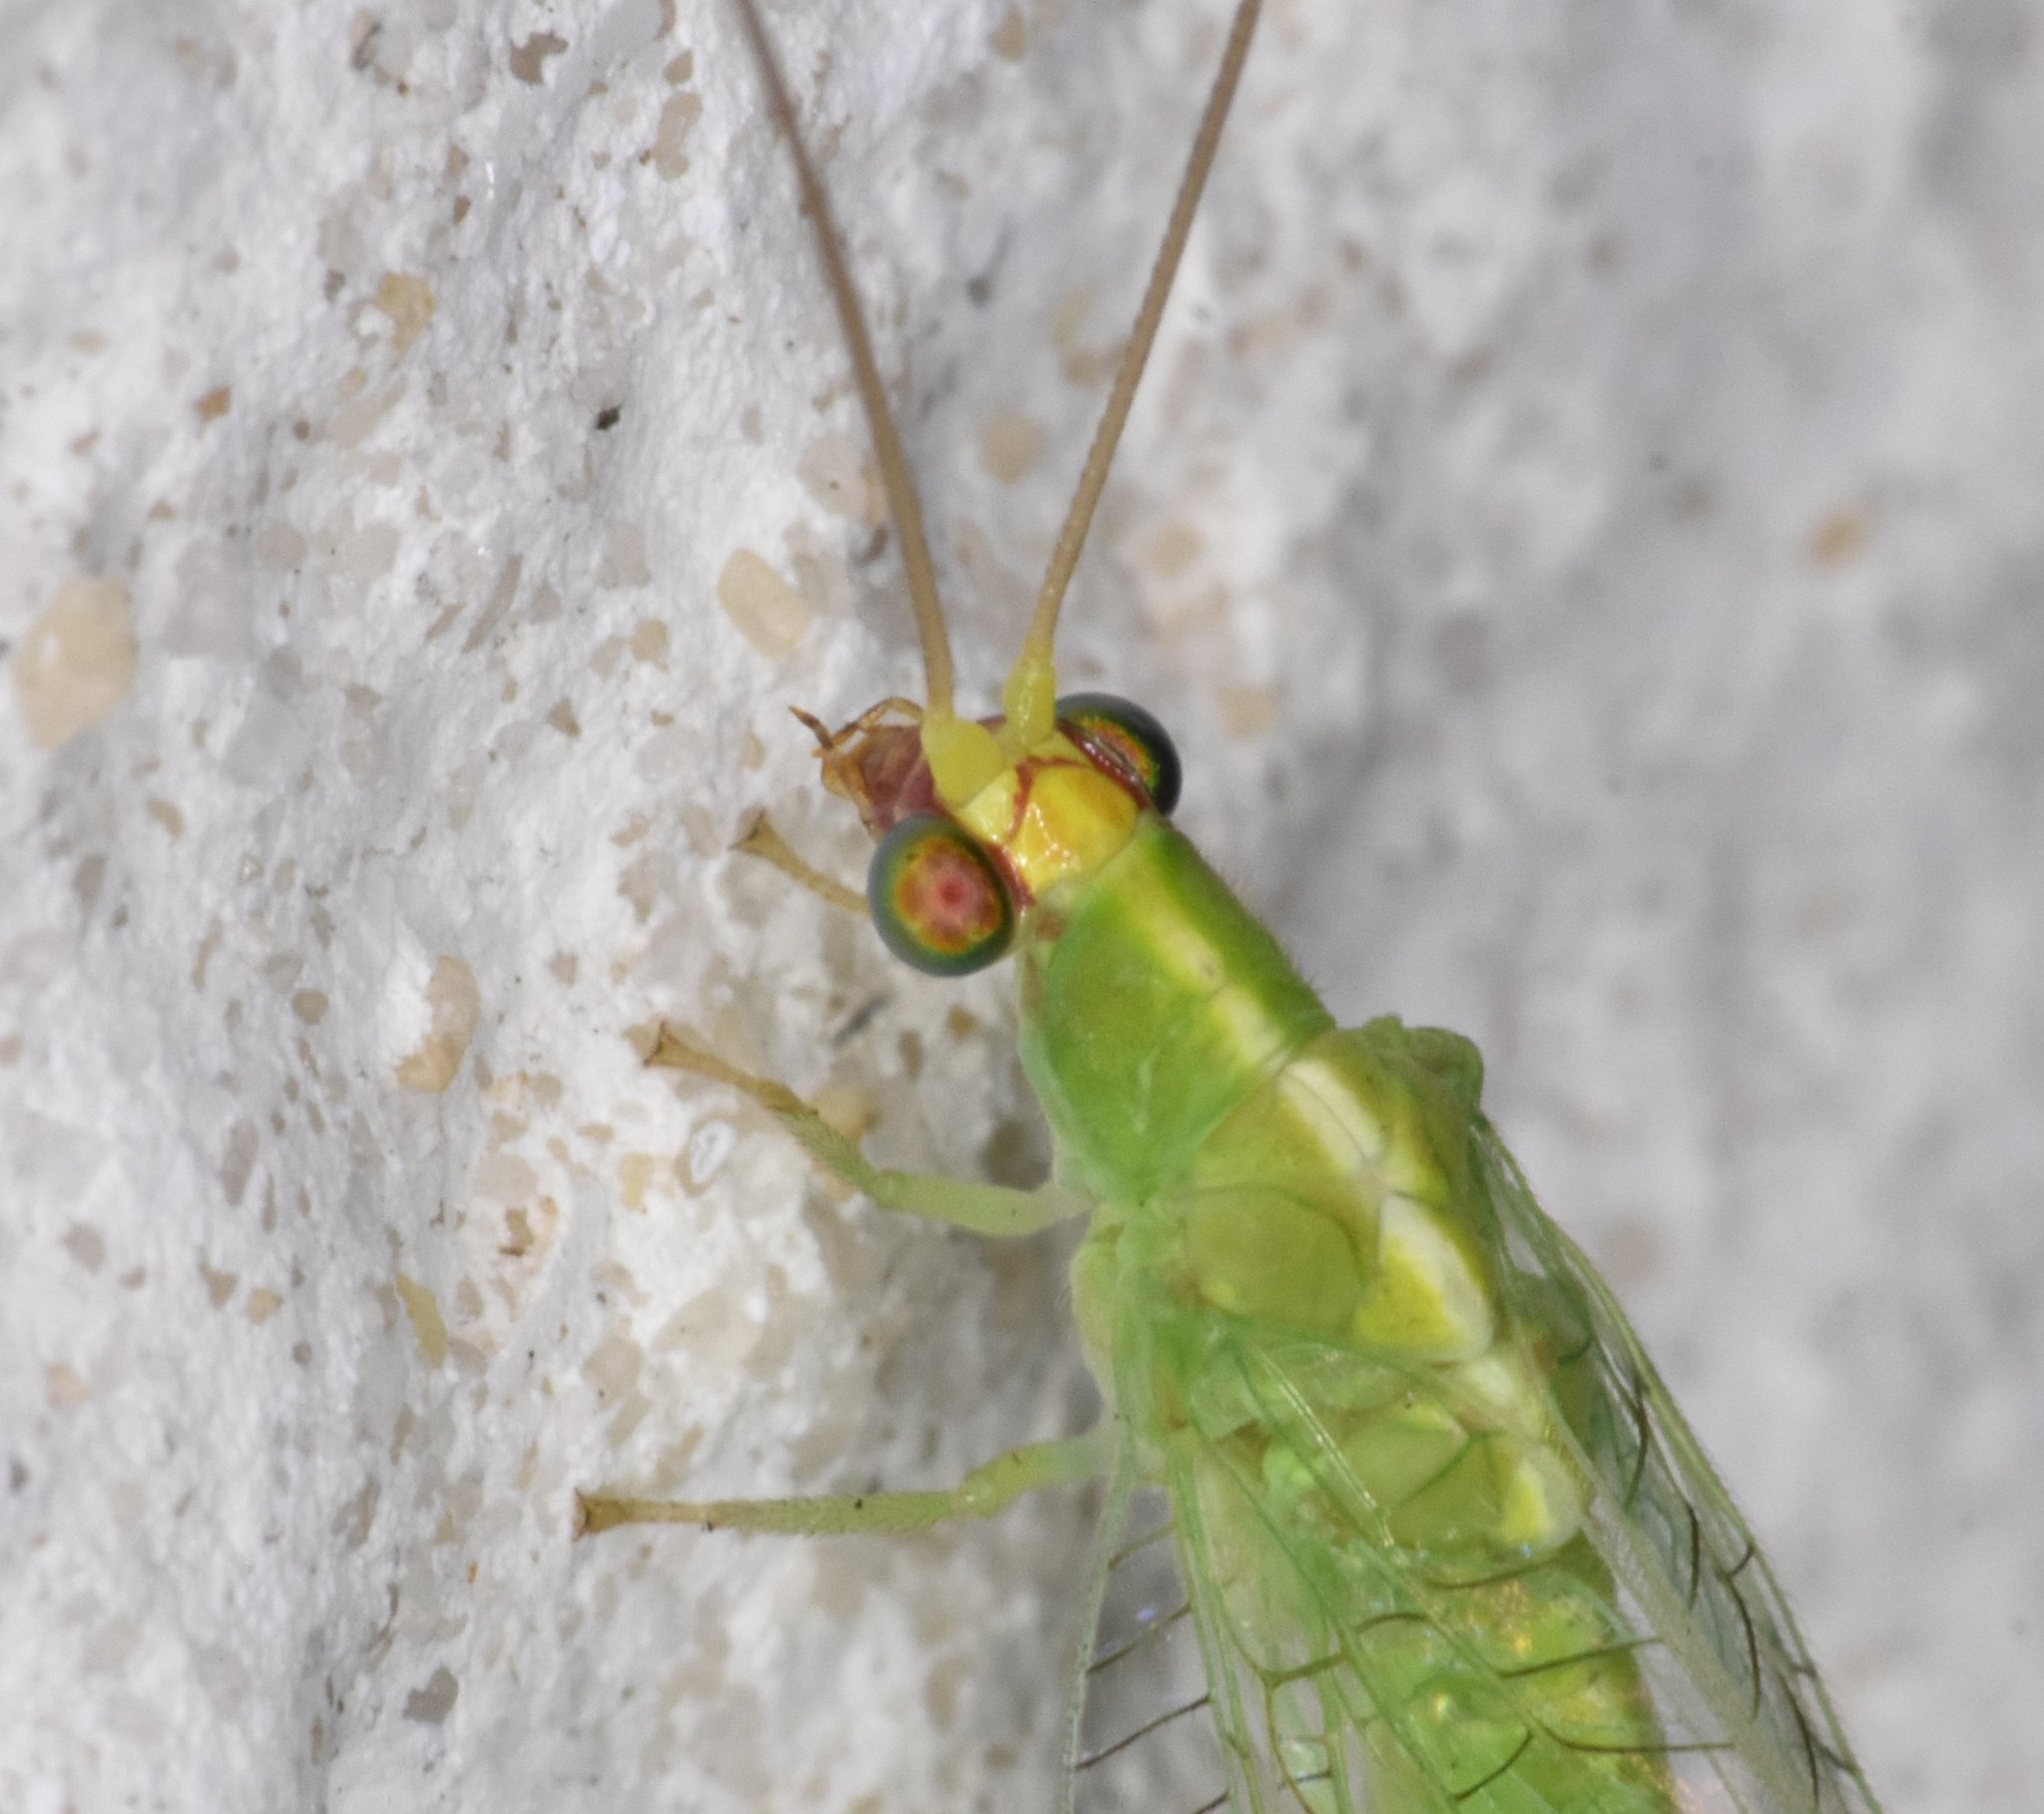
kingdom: Animalia
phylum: Arthropoda
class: Insecta
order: Neuroptera
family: Chrysopidae
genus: Chrysopodes
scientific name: Chrysopodes collaris
